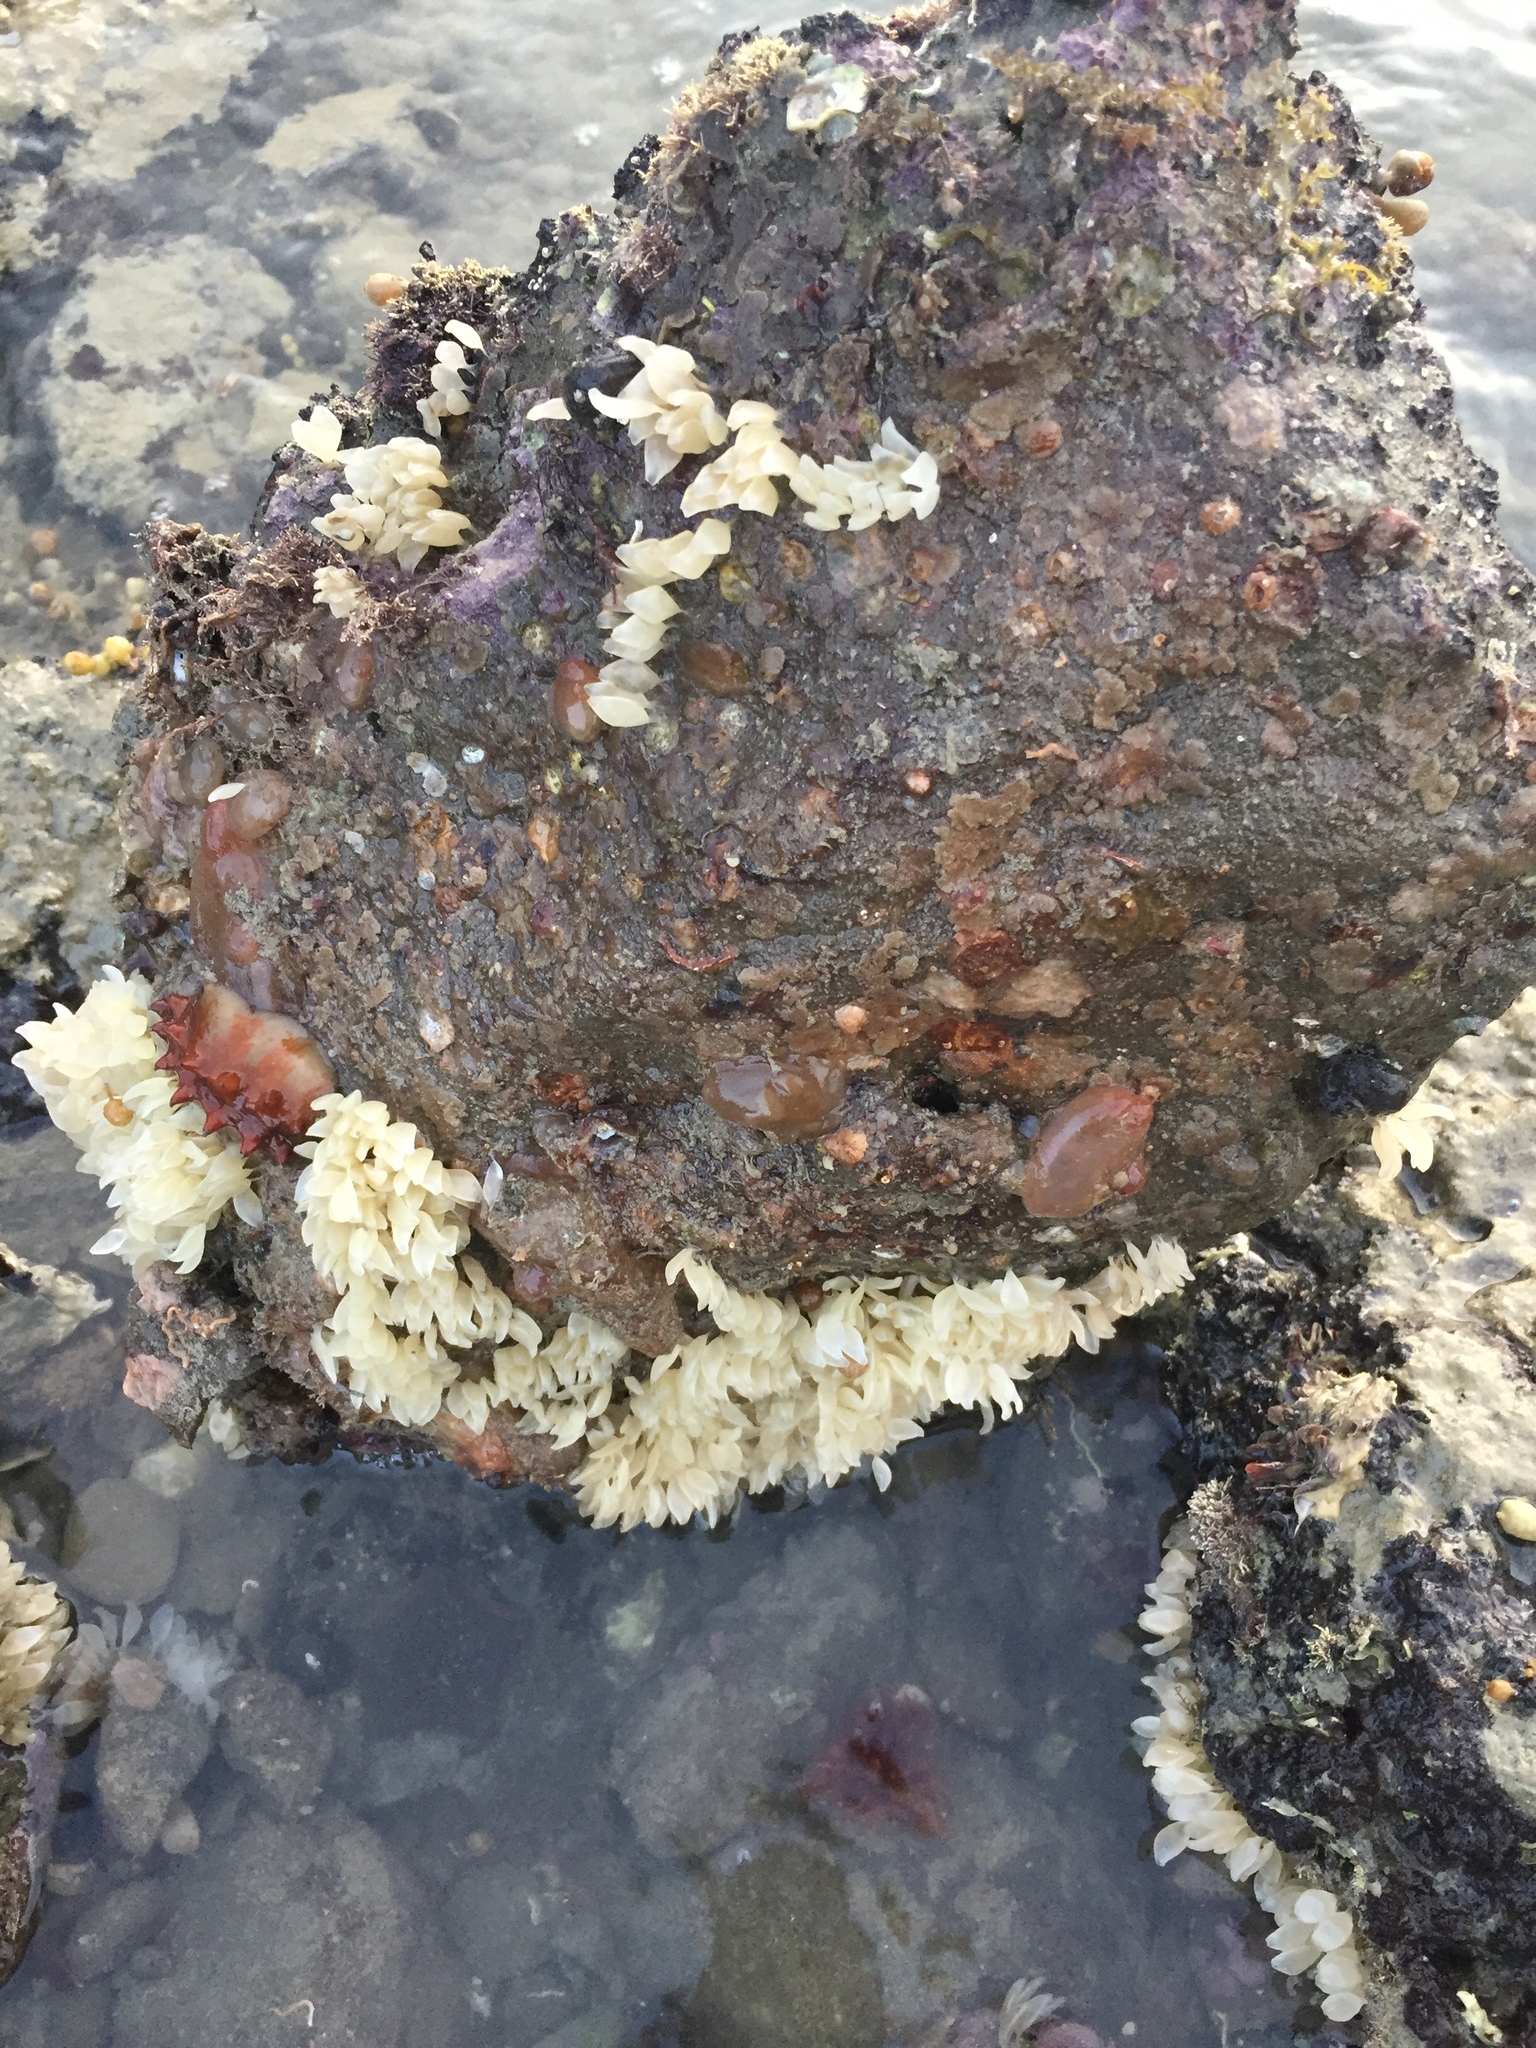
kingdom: Animalia
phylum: Mollusca
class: Gastropoda
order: Neogastropoda
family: Cominellidae
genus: Cominella
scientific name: Cominella adspersa
